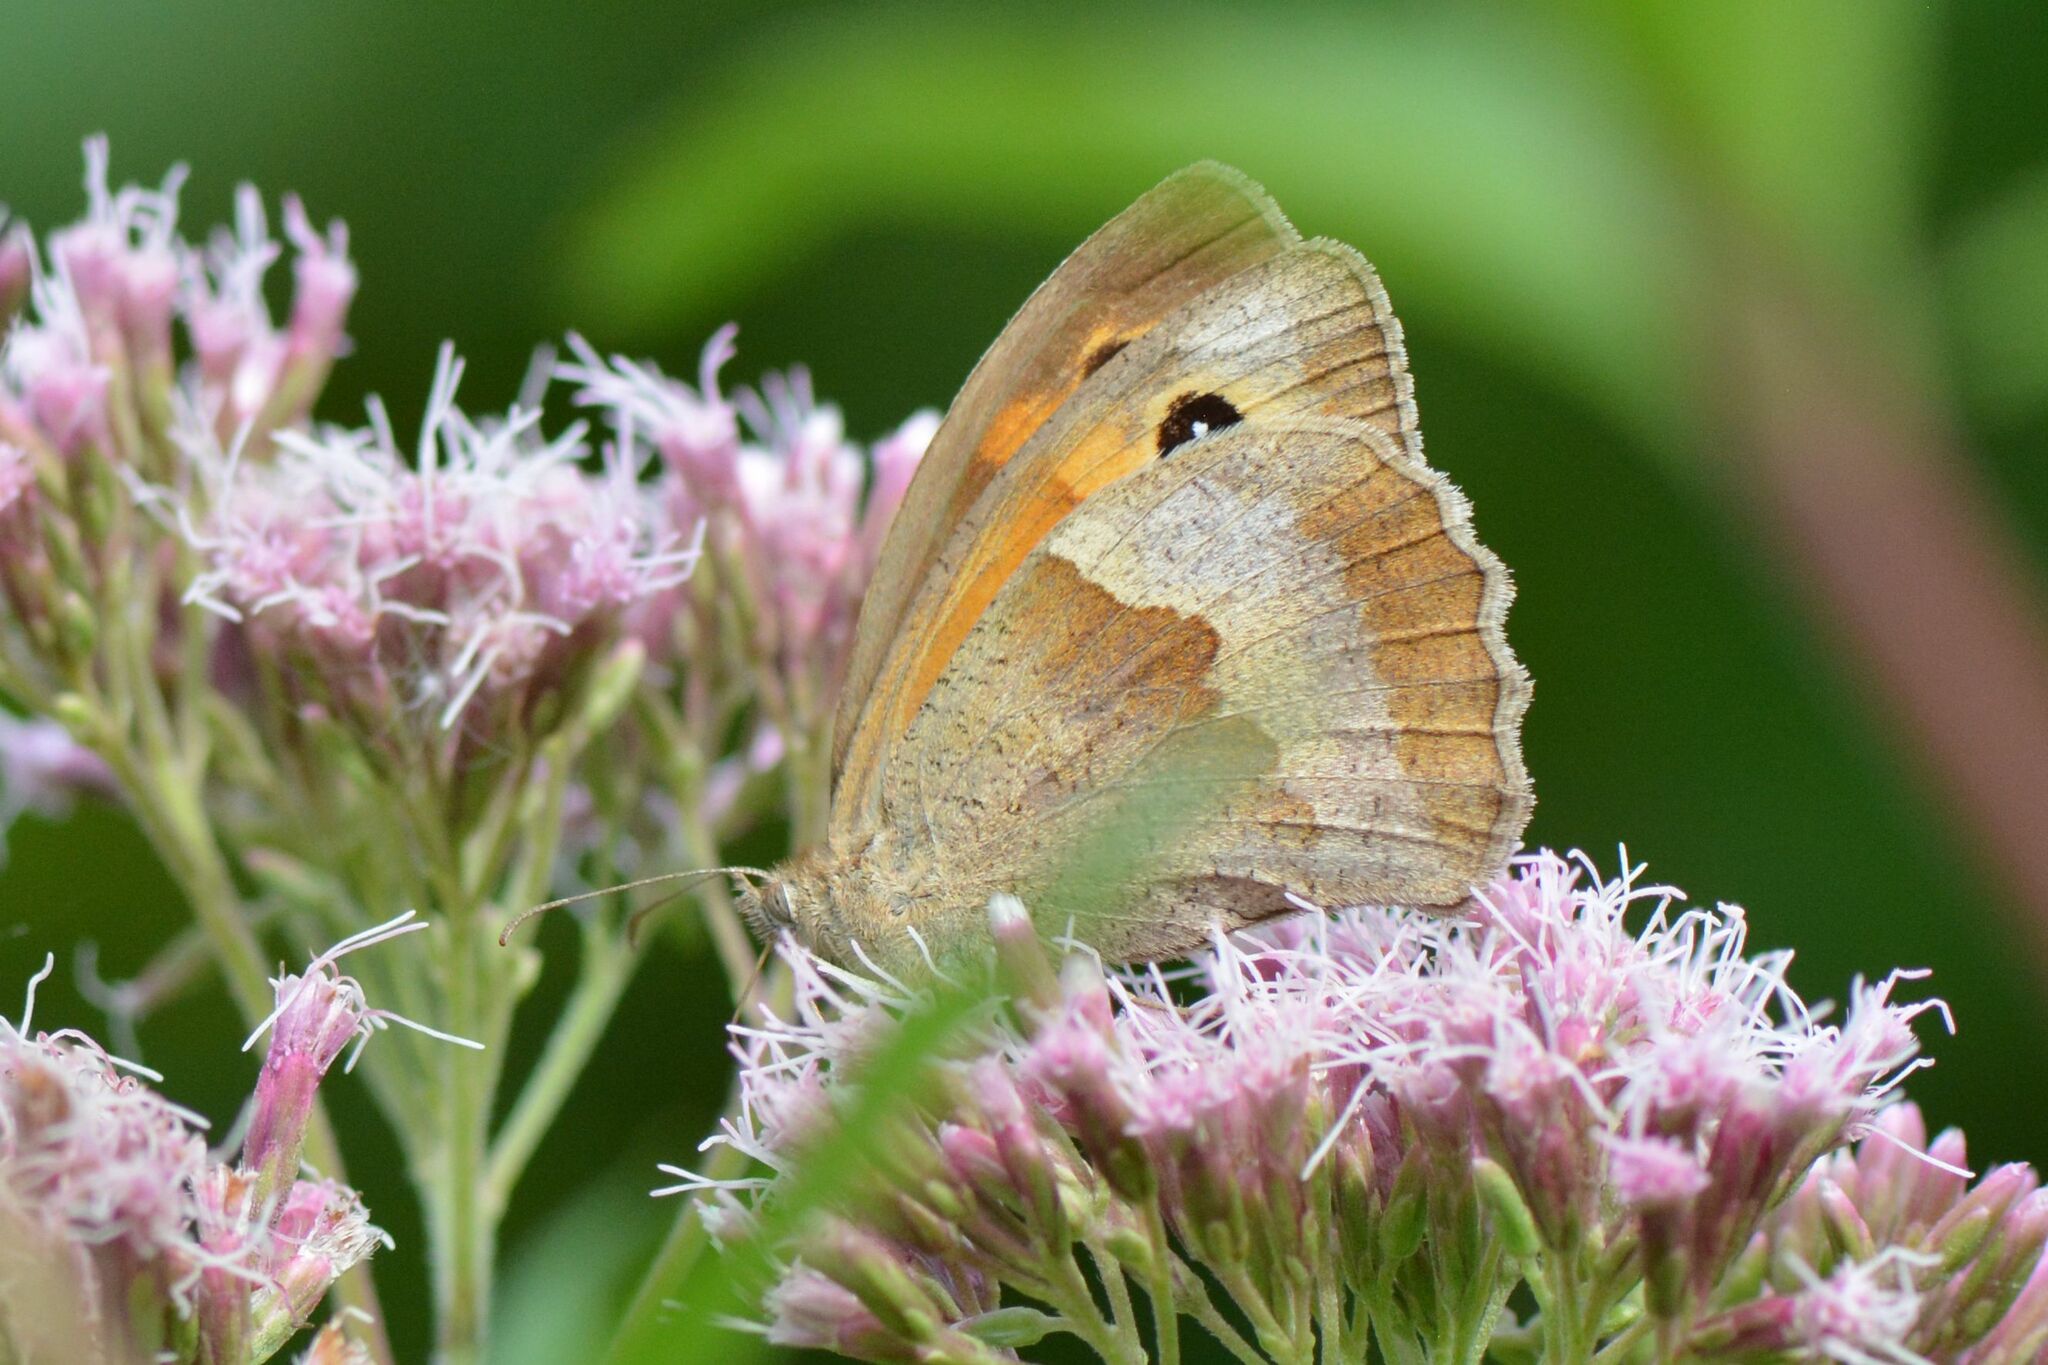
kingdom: Animalia
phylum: Arthropoda
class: Insecta
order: Lepidoptera
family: Nymphalidae
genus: Maniola
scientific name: Maniola jurtina
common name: Meadow brown
